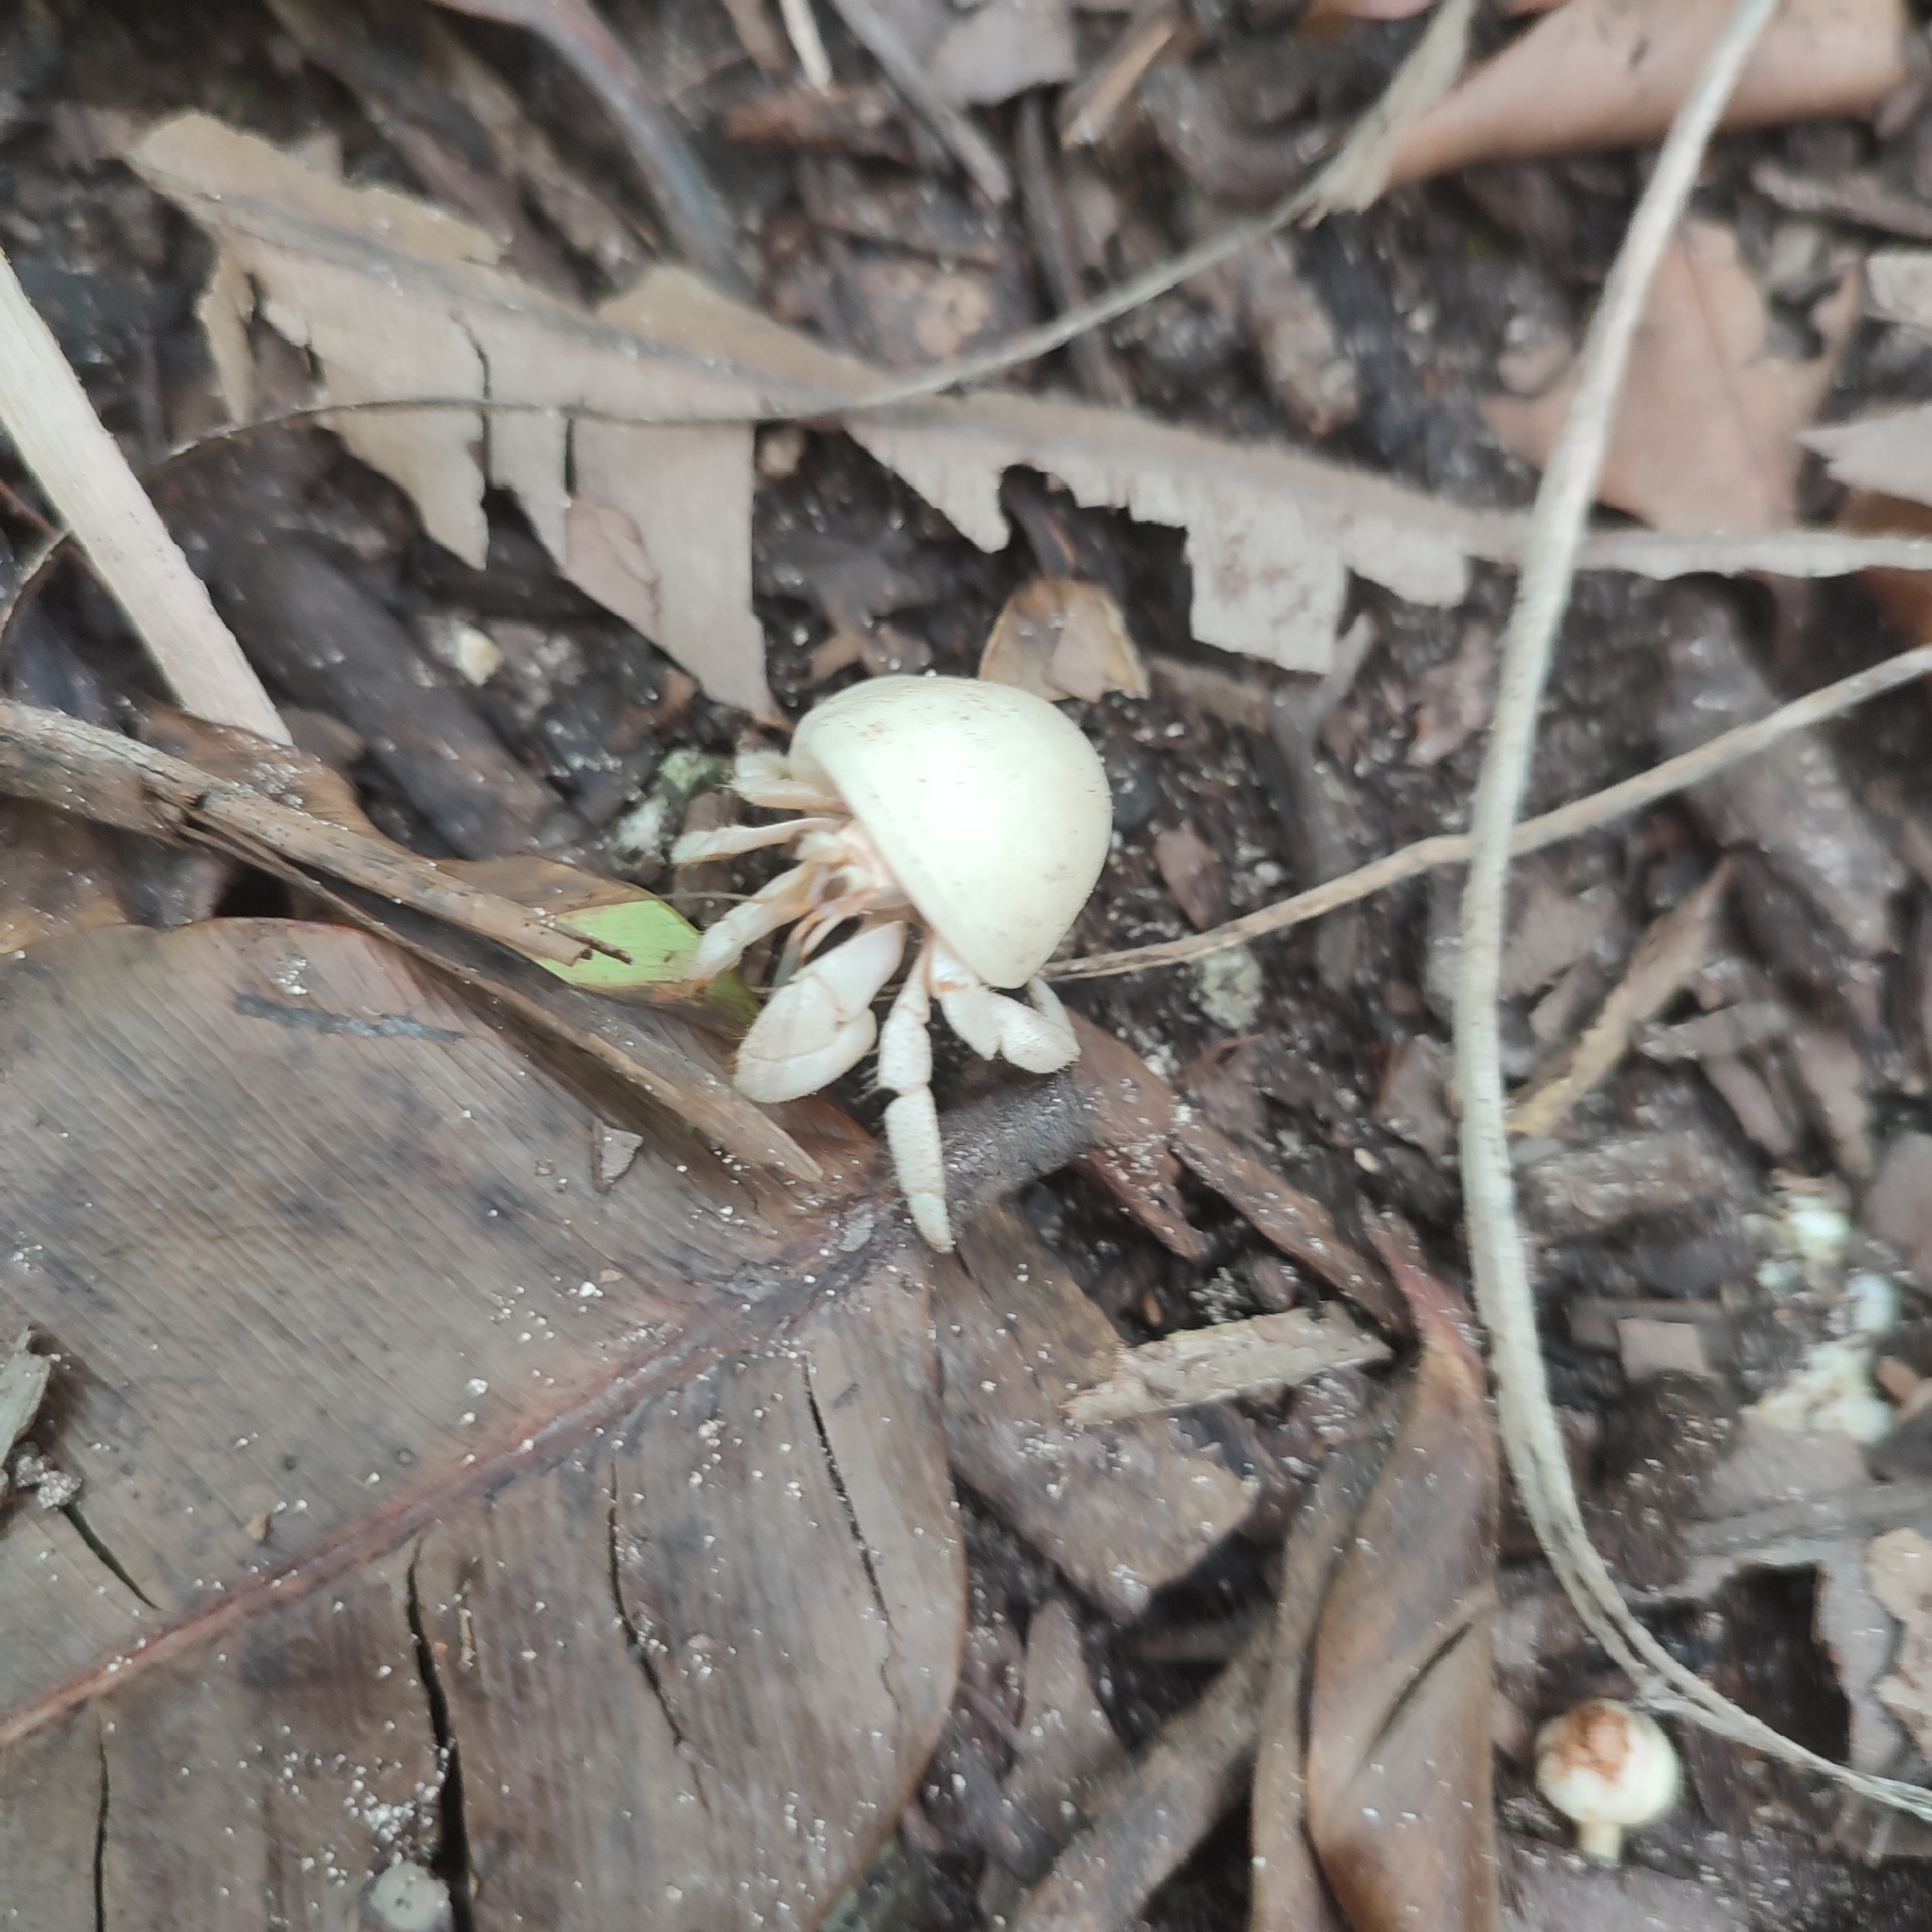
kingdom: Animalia
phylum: Arthropoda
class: Malacostraca
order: Decapoda
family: Coenobitidae
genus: Coenobita
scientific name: Coenobita rugosus
